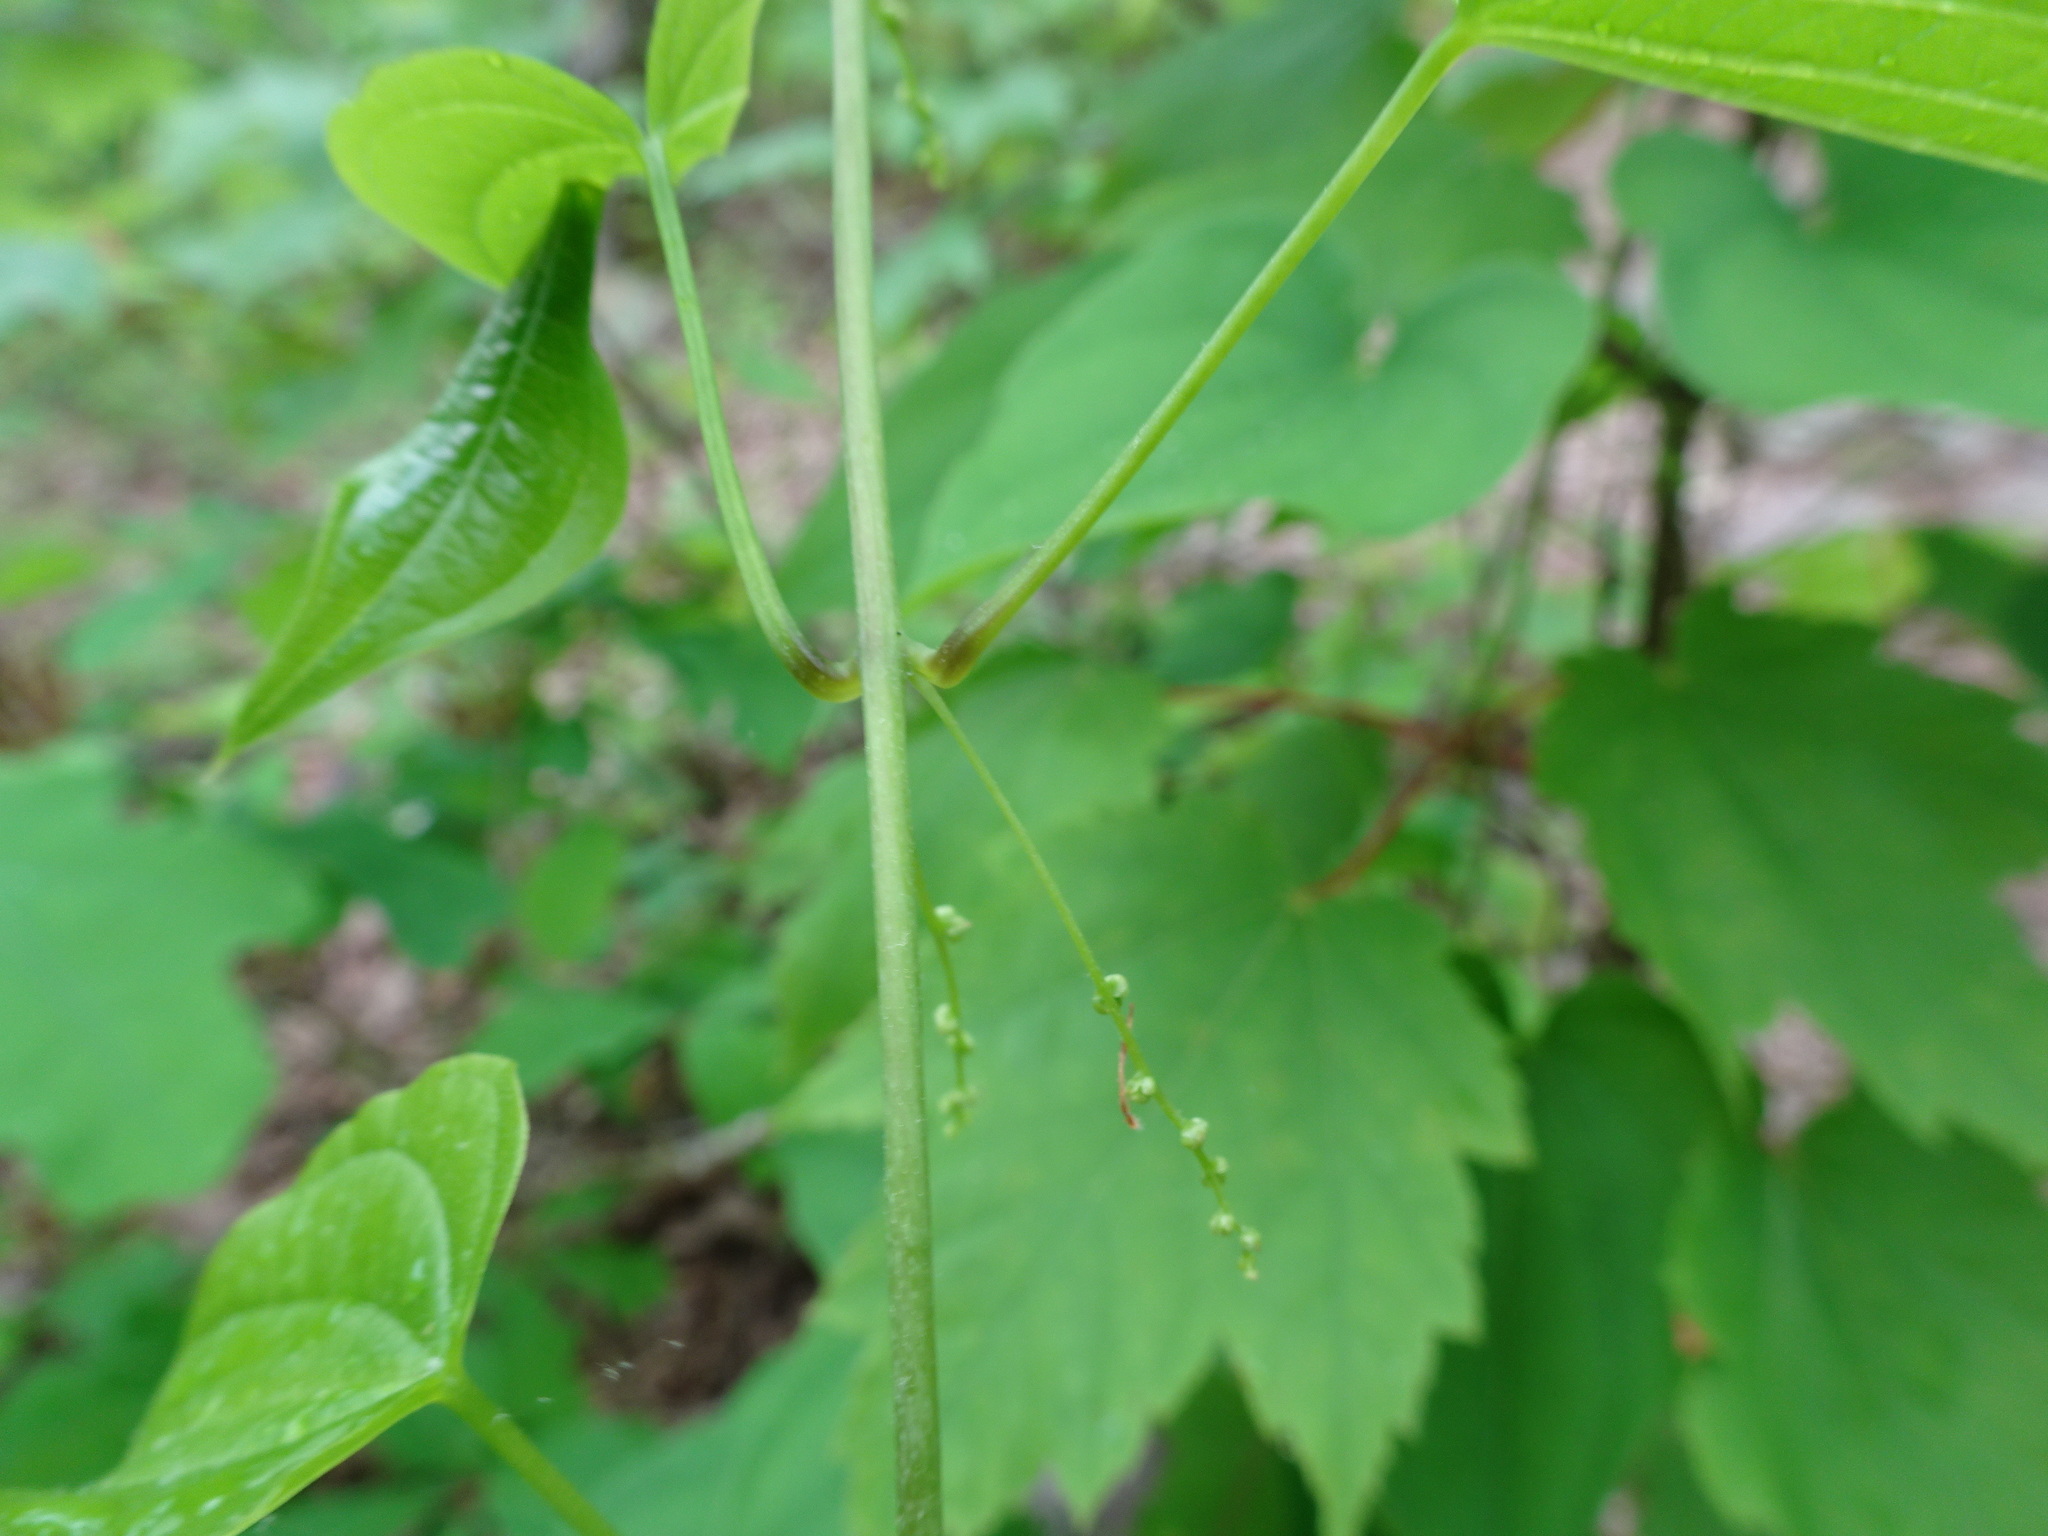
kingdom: Plantae
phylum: Tracheophyta
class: Liliopsida
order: Dioscoreales
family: Dioscoreaceae
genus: Dioscorea
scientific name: Dioscorea villosa
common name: Wild yam
